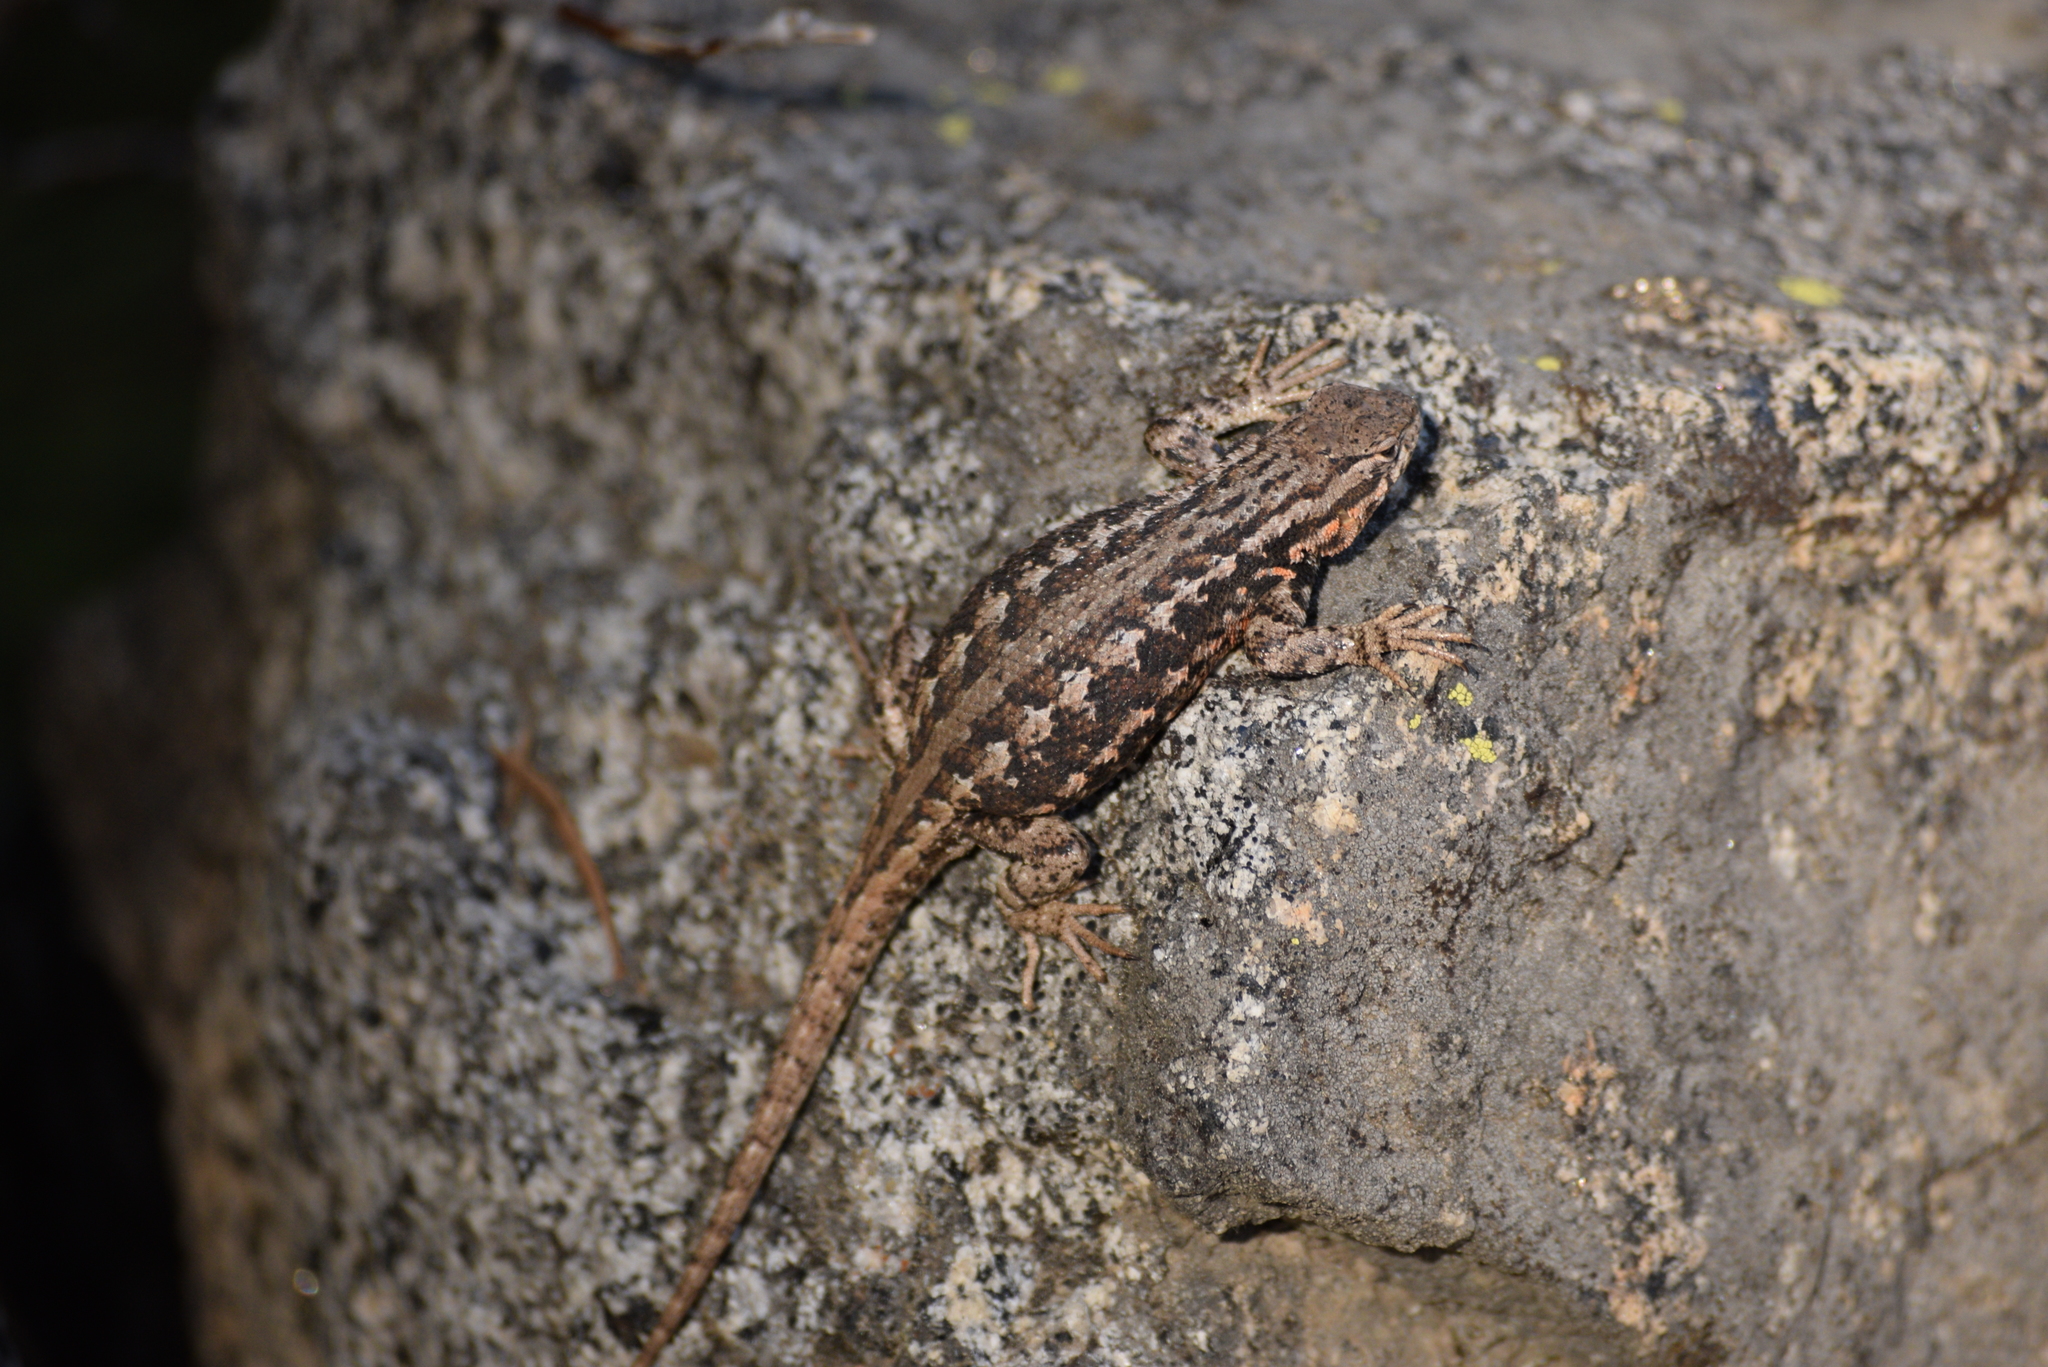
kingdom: Animalia
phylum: Chordata
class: Squamata
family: Phrynosomatidae
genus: Sceloporus
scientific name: Sceloporus graciosus
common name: Sagebrush lizard
